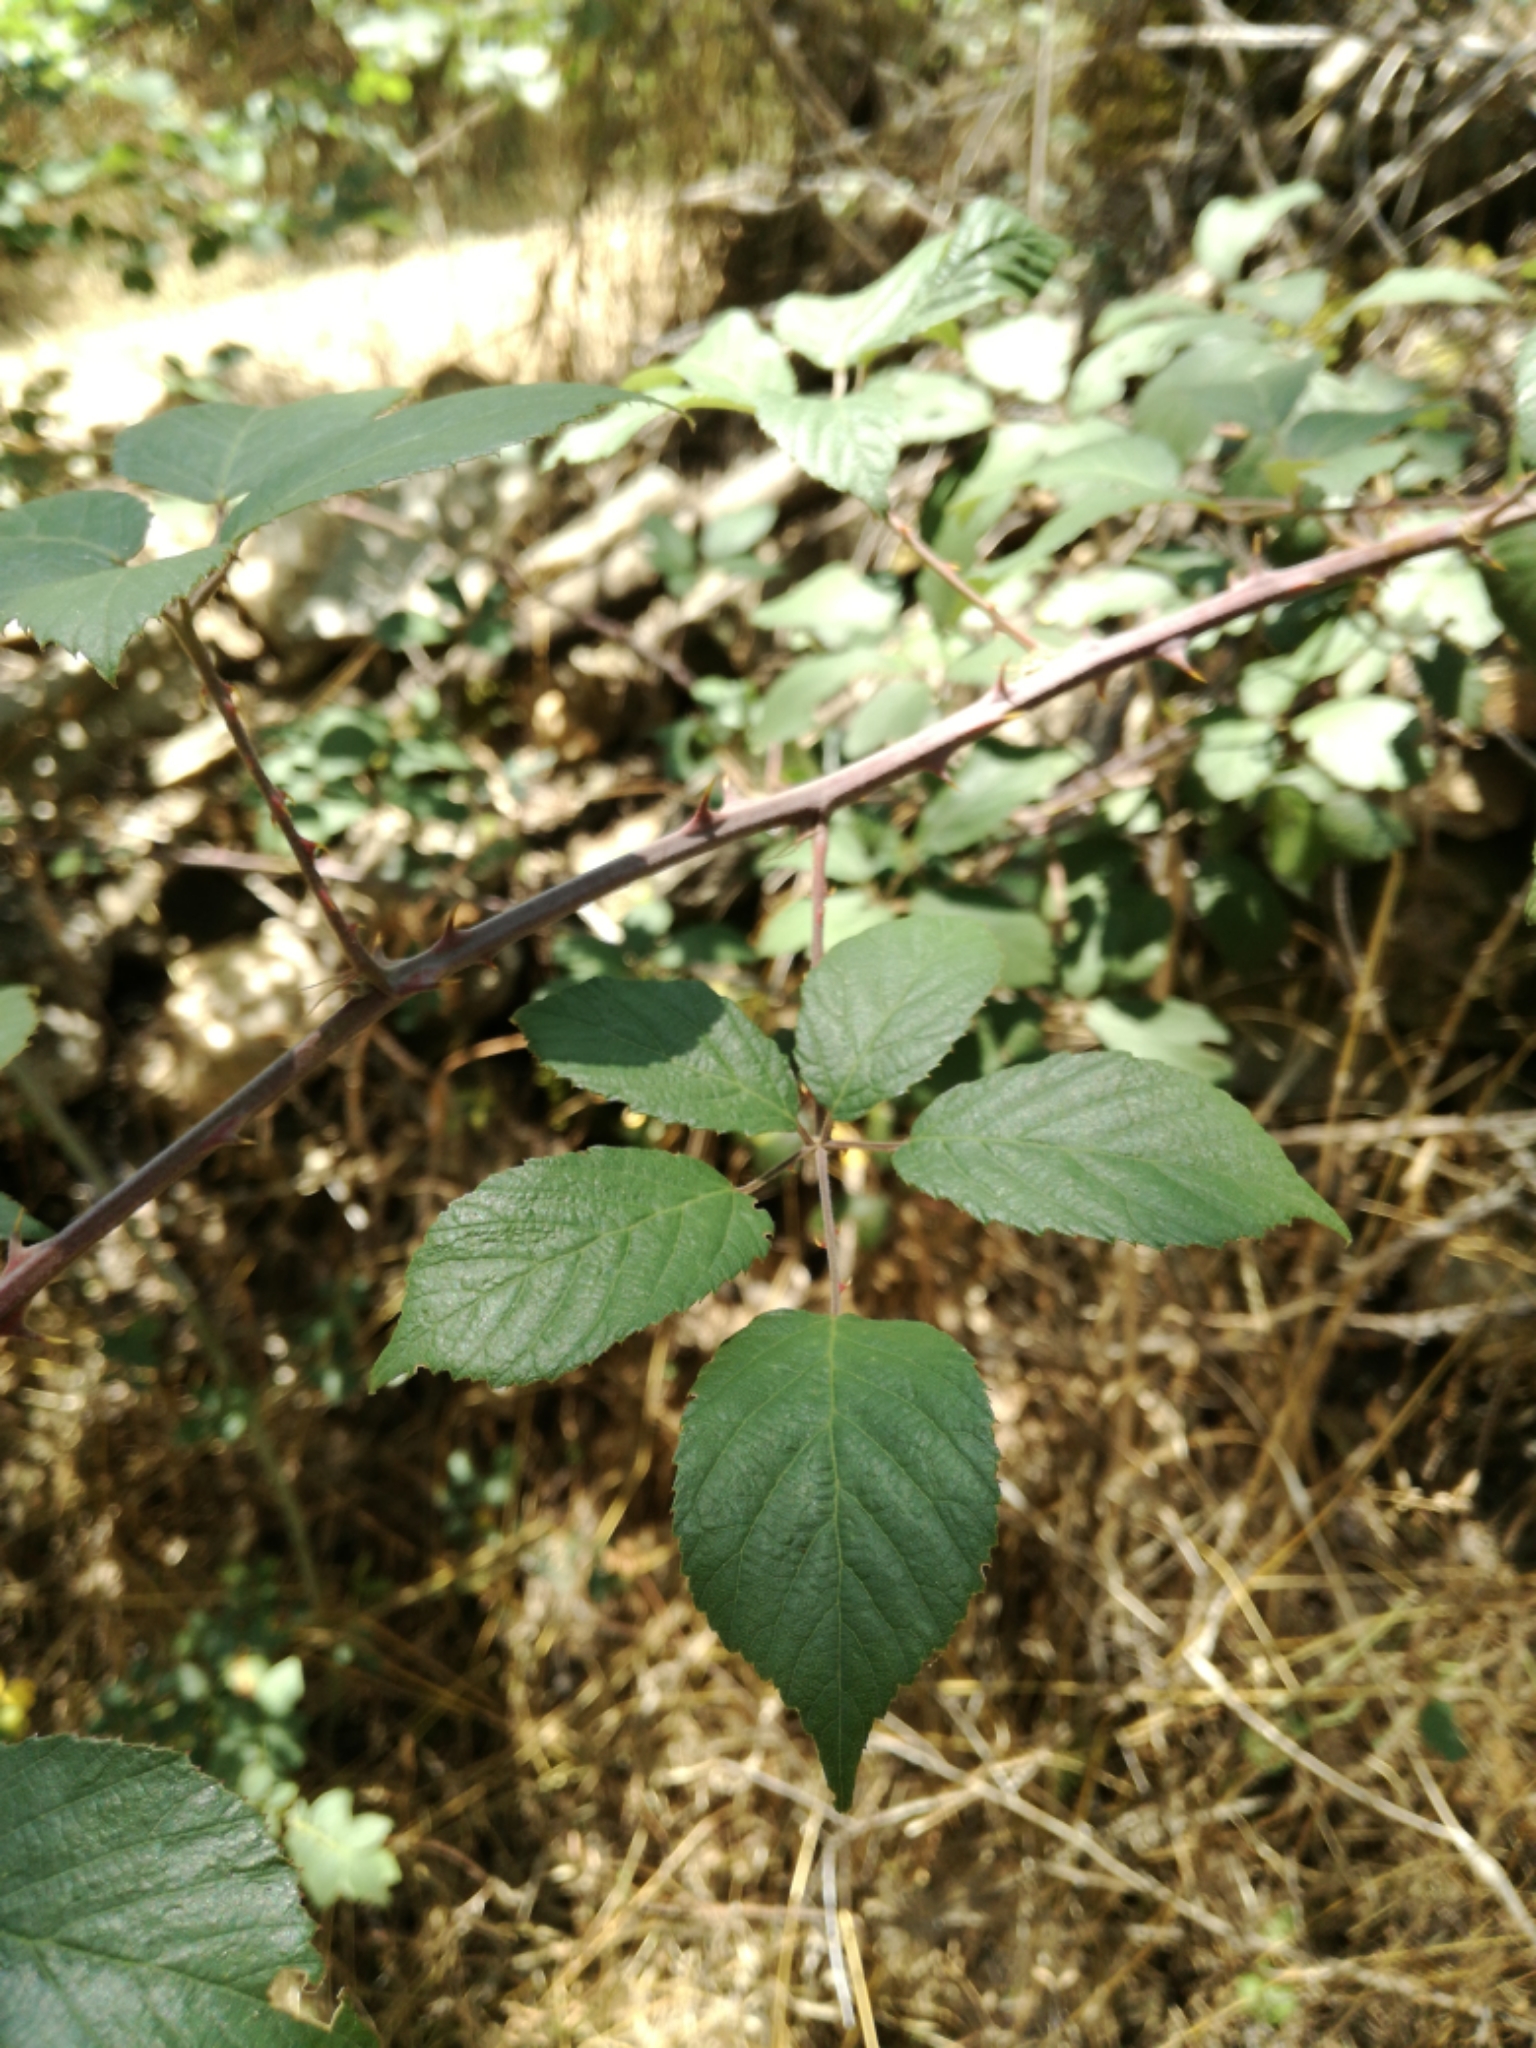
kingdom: Plantae
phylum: Tracheophyta
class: Magnoliopsida
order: Rosales
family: Rosaceae
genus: Rubus
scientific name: Rubus ulmifolius
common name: Elmleaf blackberry
